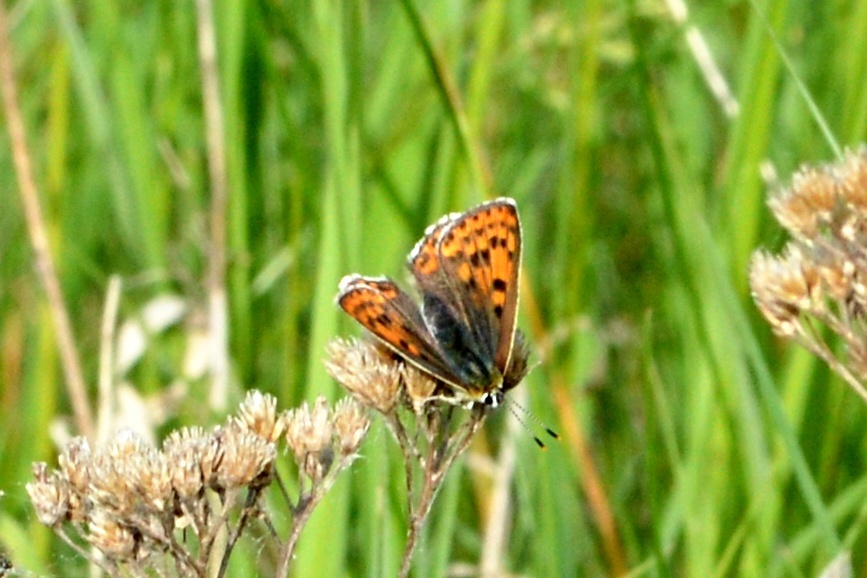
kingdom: Animalia
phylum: Arthropoda
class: Insecta
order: Lepidoptera
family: Lycaenidae
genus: Loweia
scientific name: Loweia tityrus
